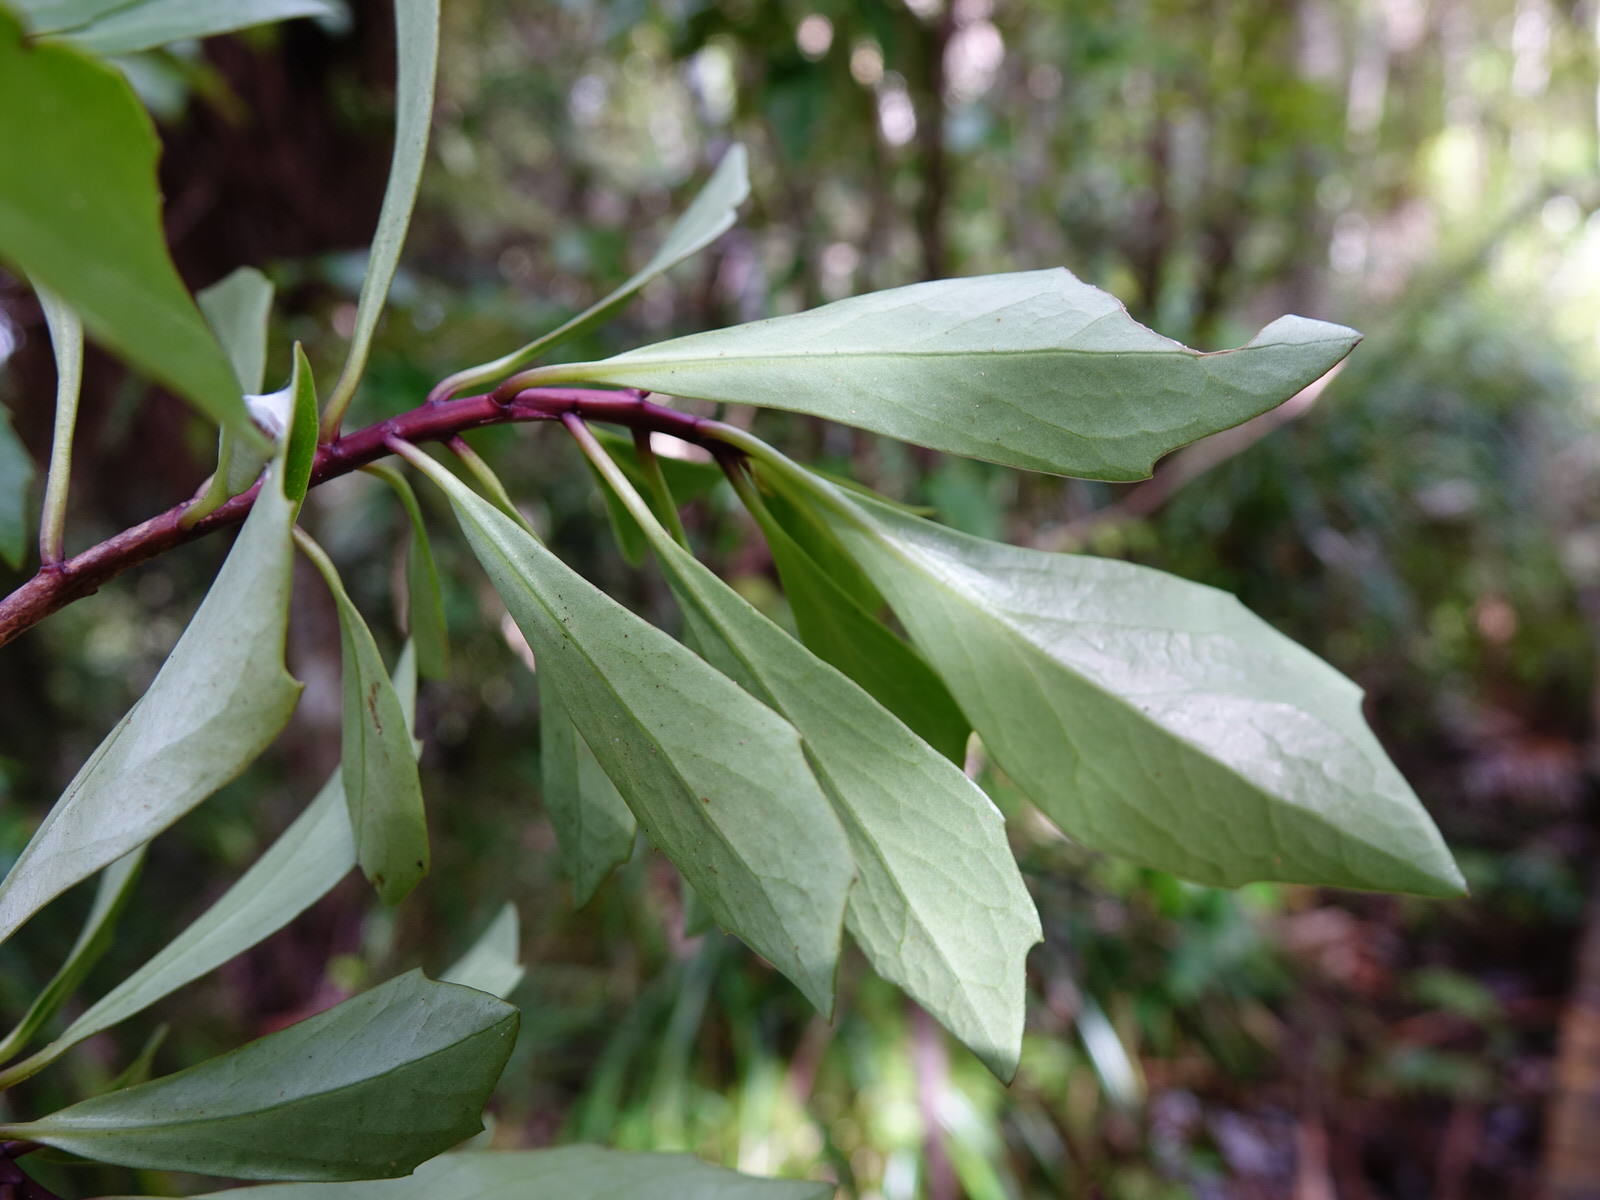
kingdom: Plantae
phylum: Tracheophyta
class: Magnoliopsida
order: Asterales
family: Asteraceae
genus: Brachyglottis
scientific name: Brachyglottis kirkii
